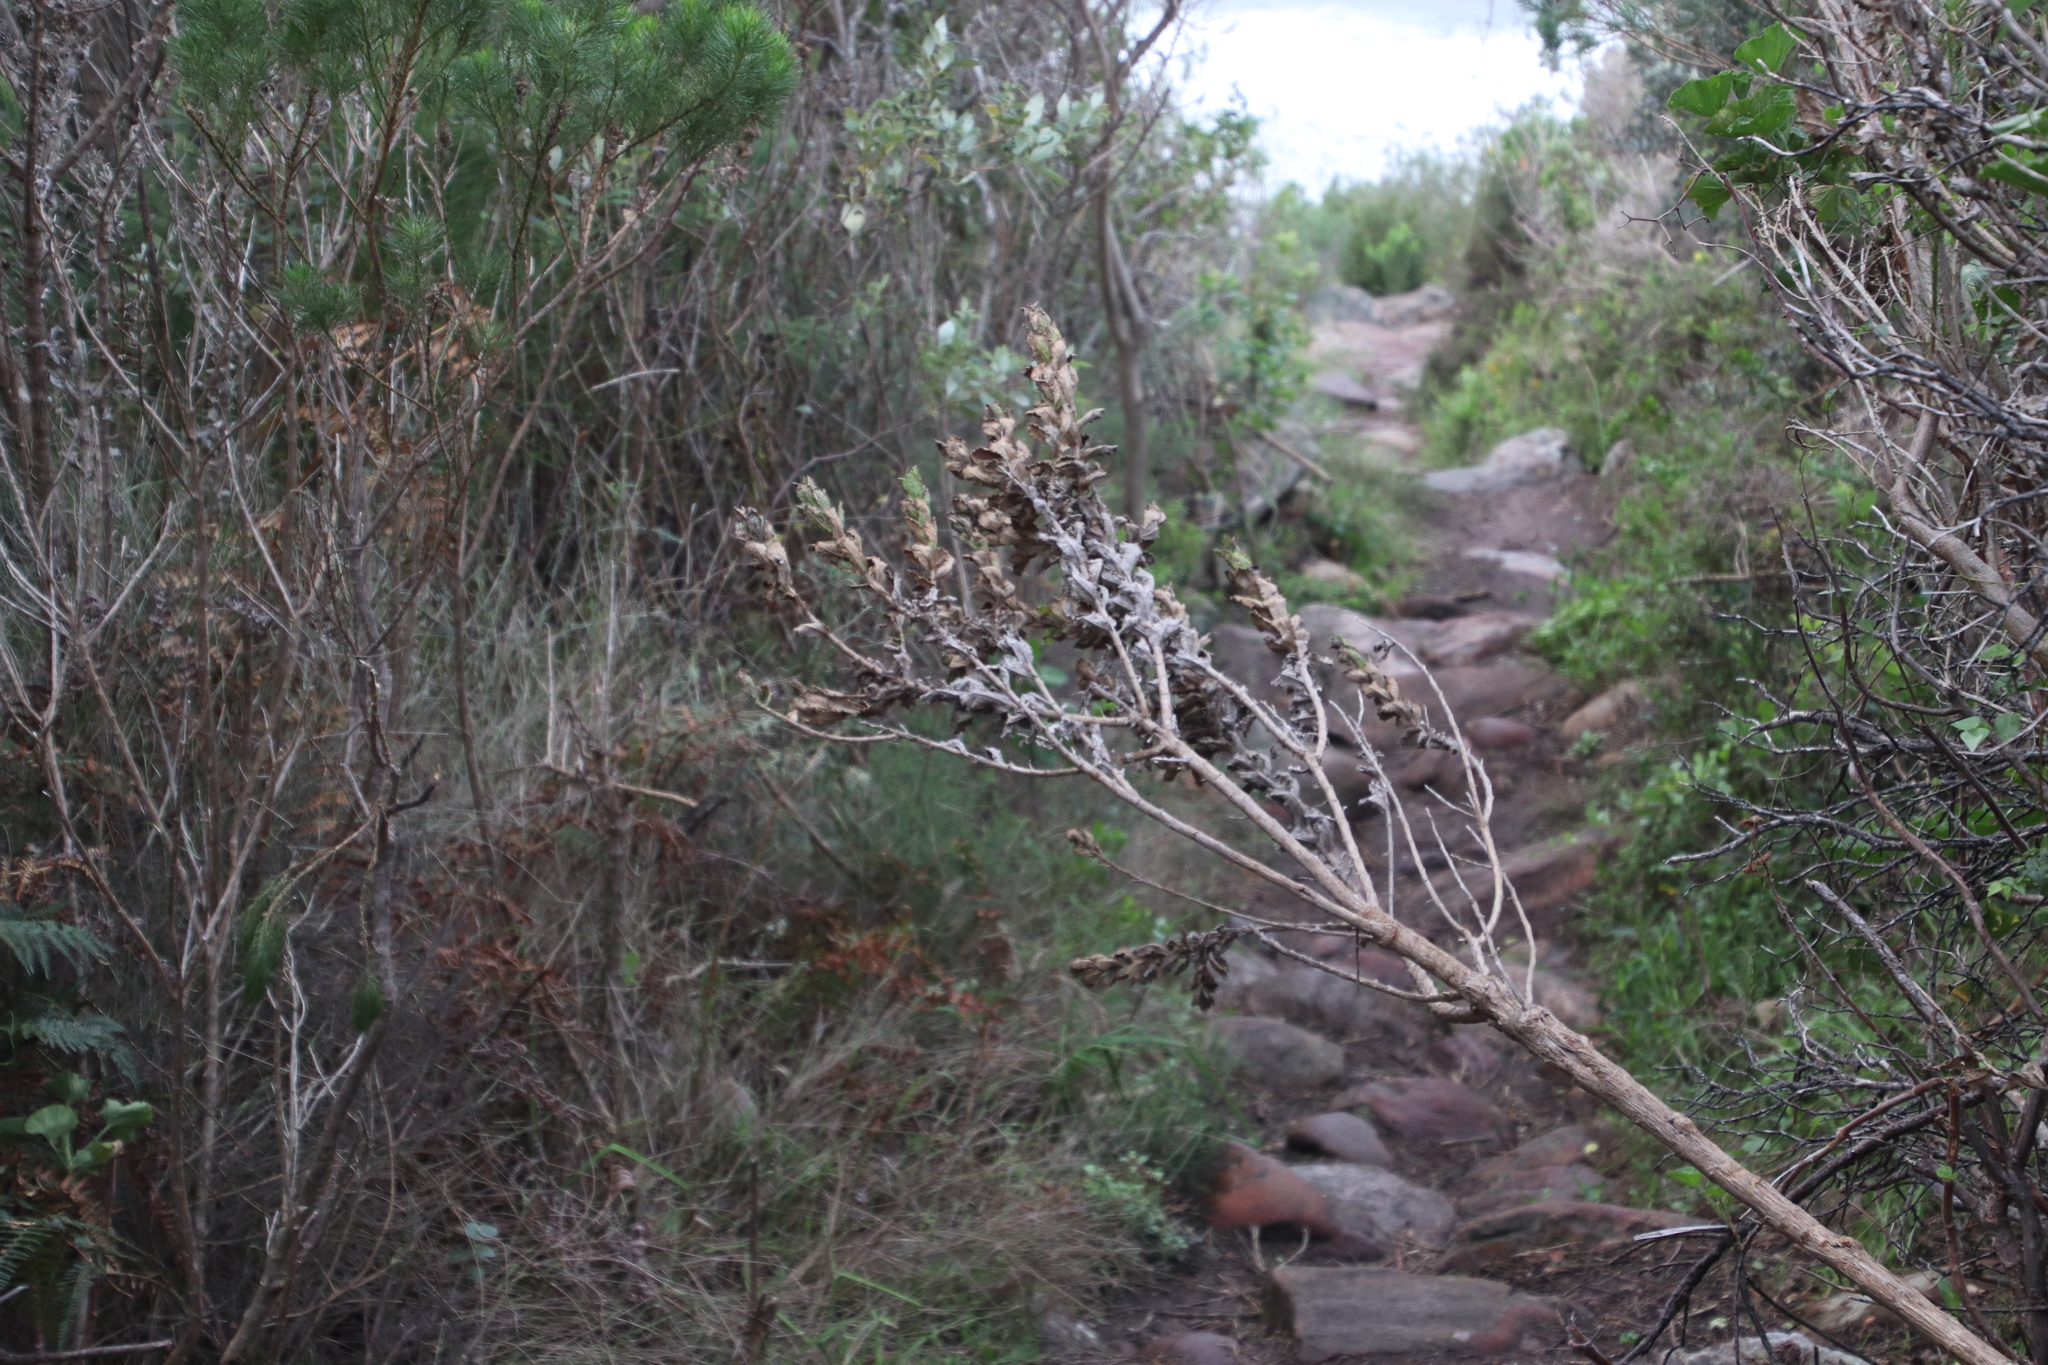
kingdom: Plantae
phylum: Tracheophyta
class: Magnoliopsida
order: Asterales
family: Asteraceae
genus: Senecio
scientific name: Senecio rigidus
